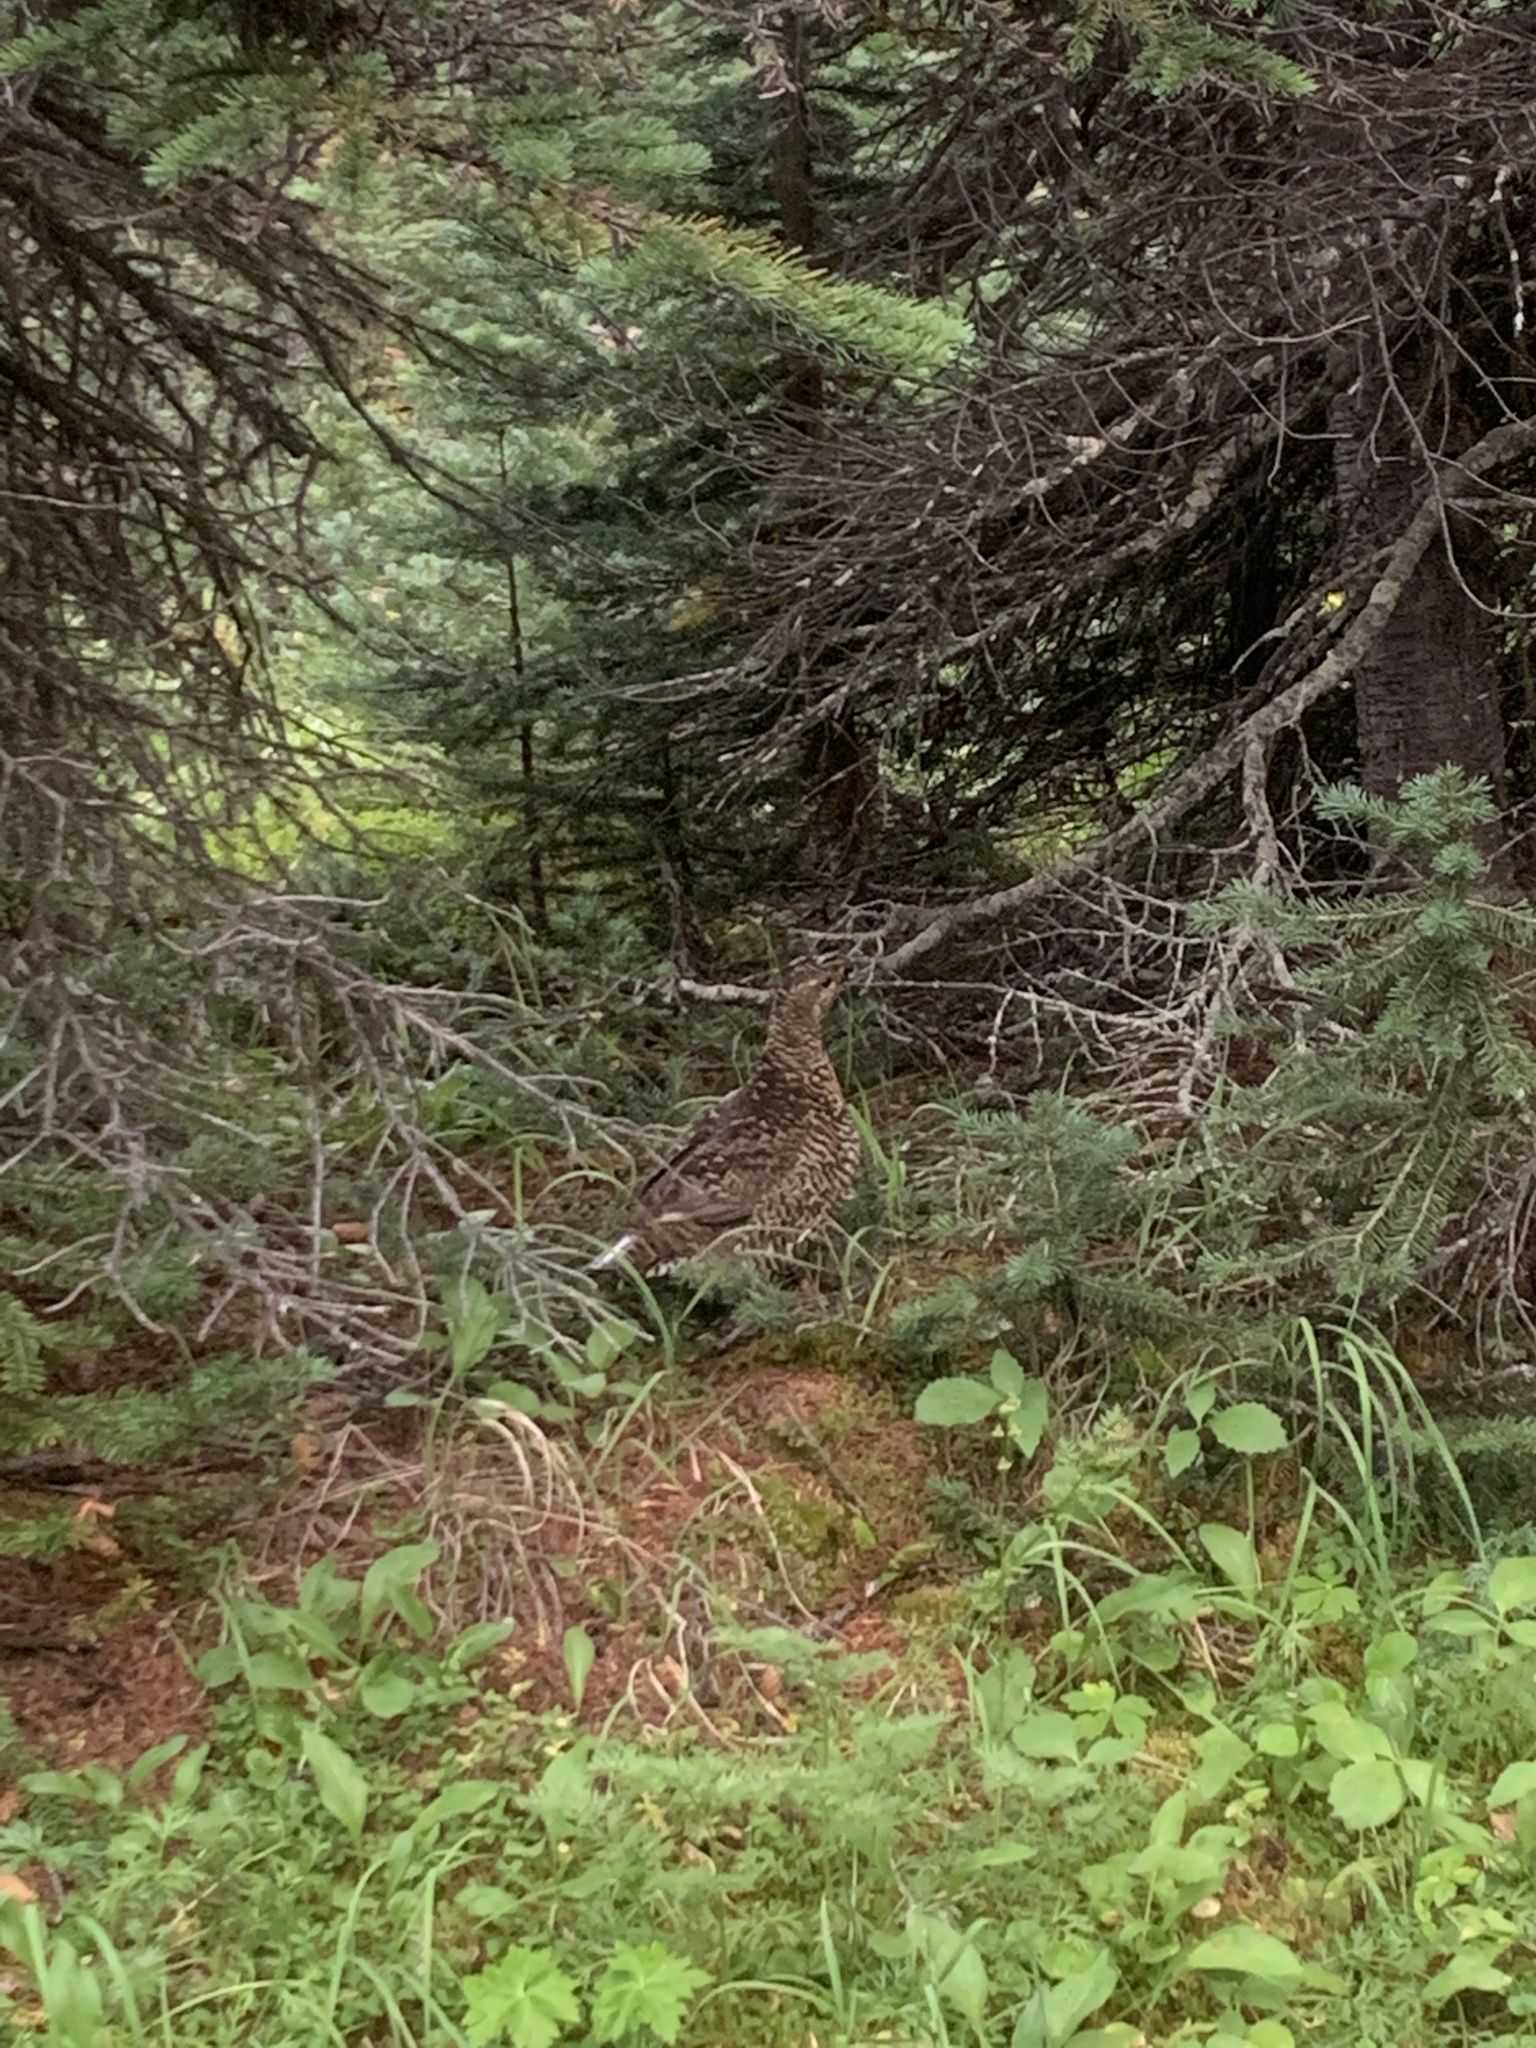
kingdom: Animalia
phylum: Chordata
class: Aves
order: Galliformes
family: Phasianidae
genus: Canachites
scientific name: Canachites canadensis
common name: Spruce grouse
